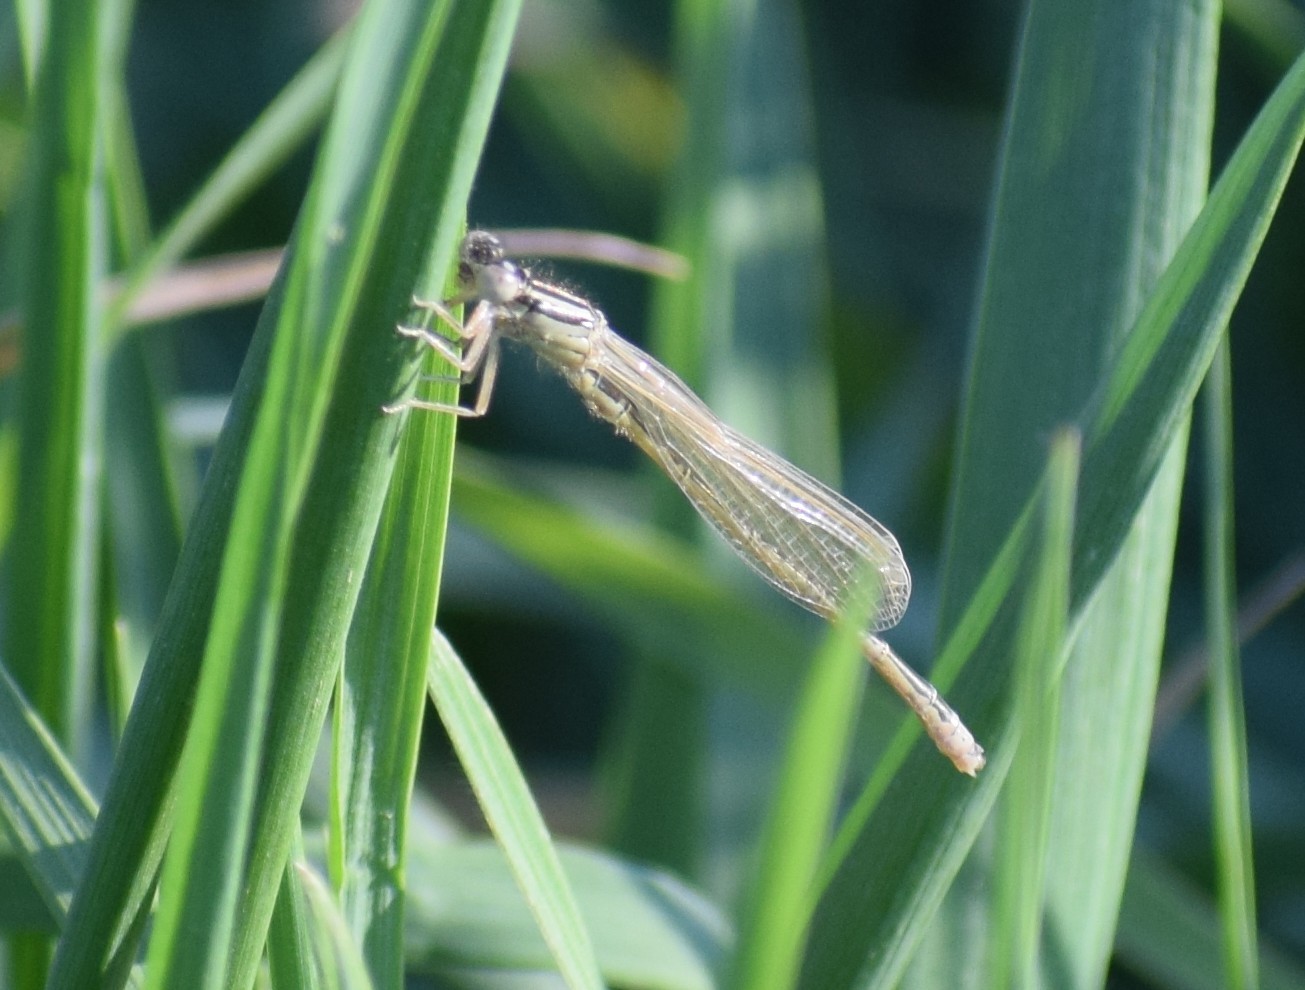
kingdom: Animalia
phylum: Arthropoda
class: Insecta
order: Odonata
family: Coenagrionidae
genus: Ischnura
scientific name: Ischnura pumilio
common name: Scarce blue-tailed damselfly
